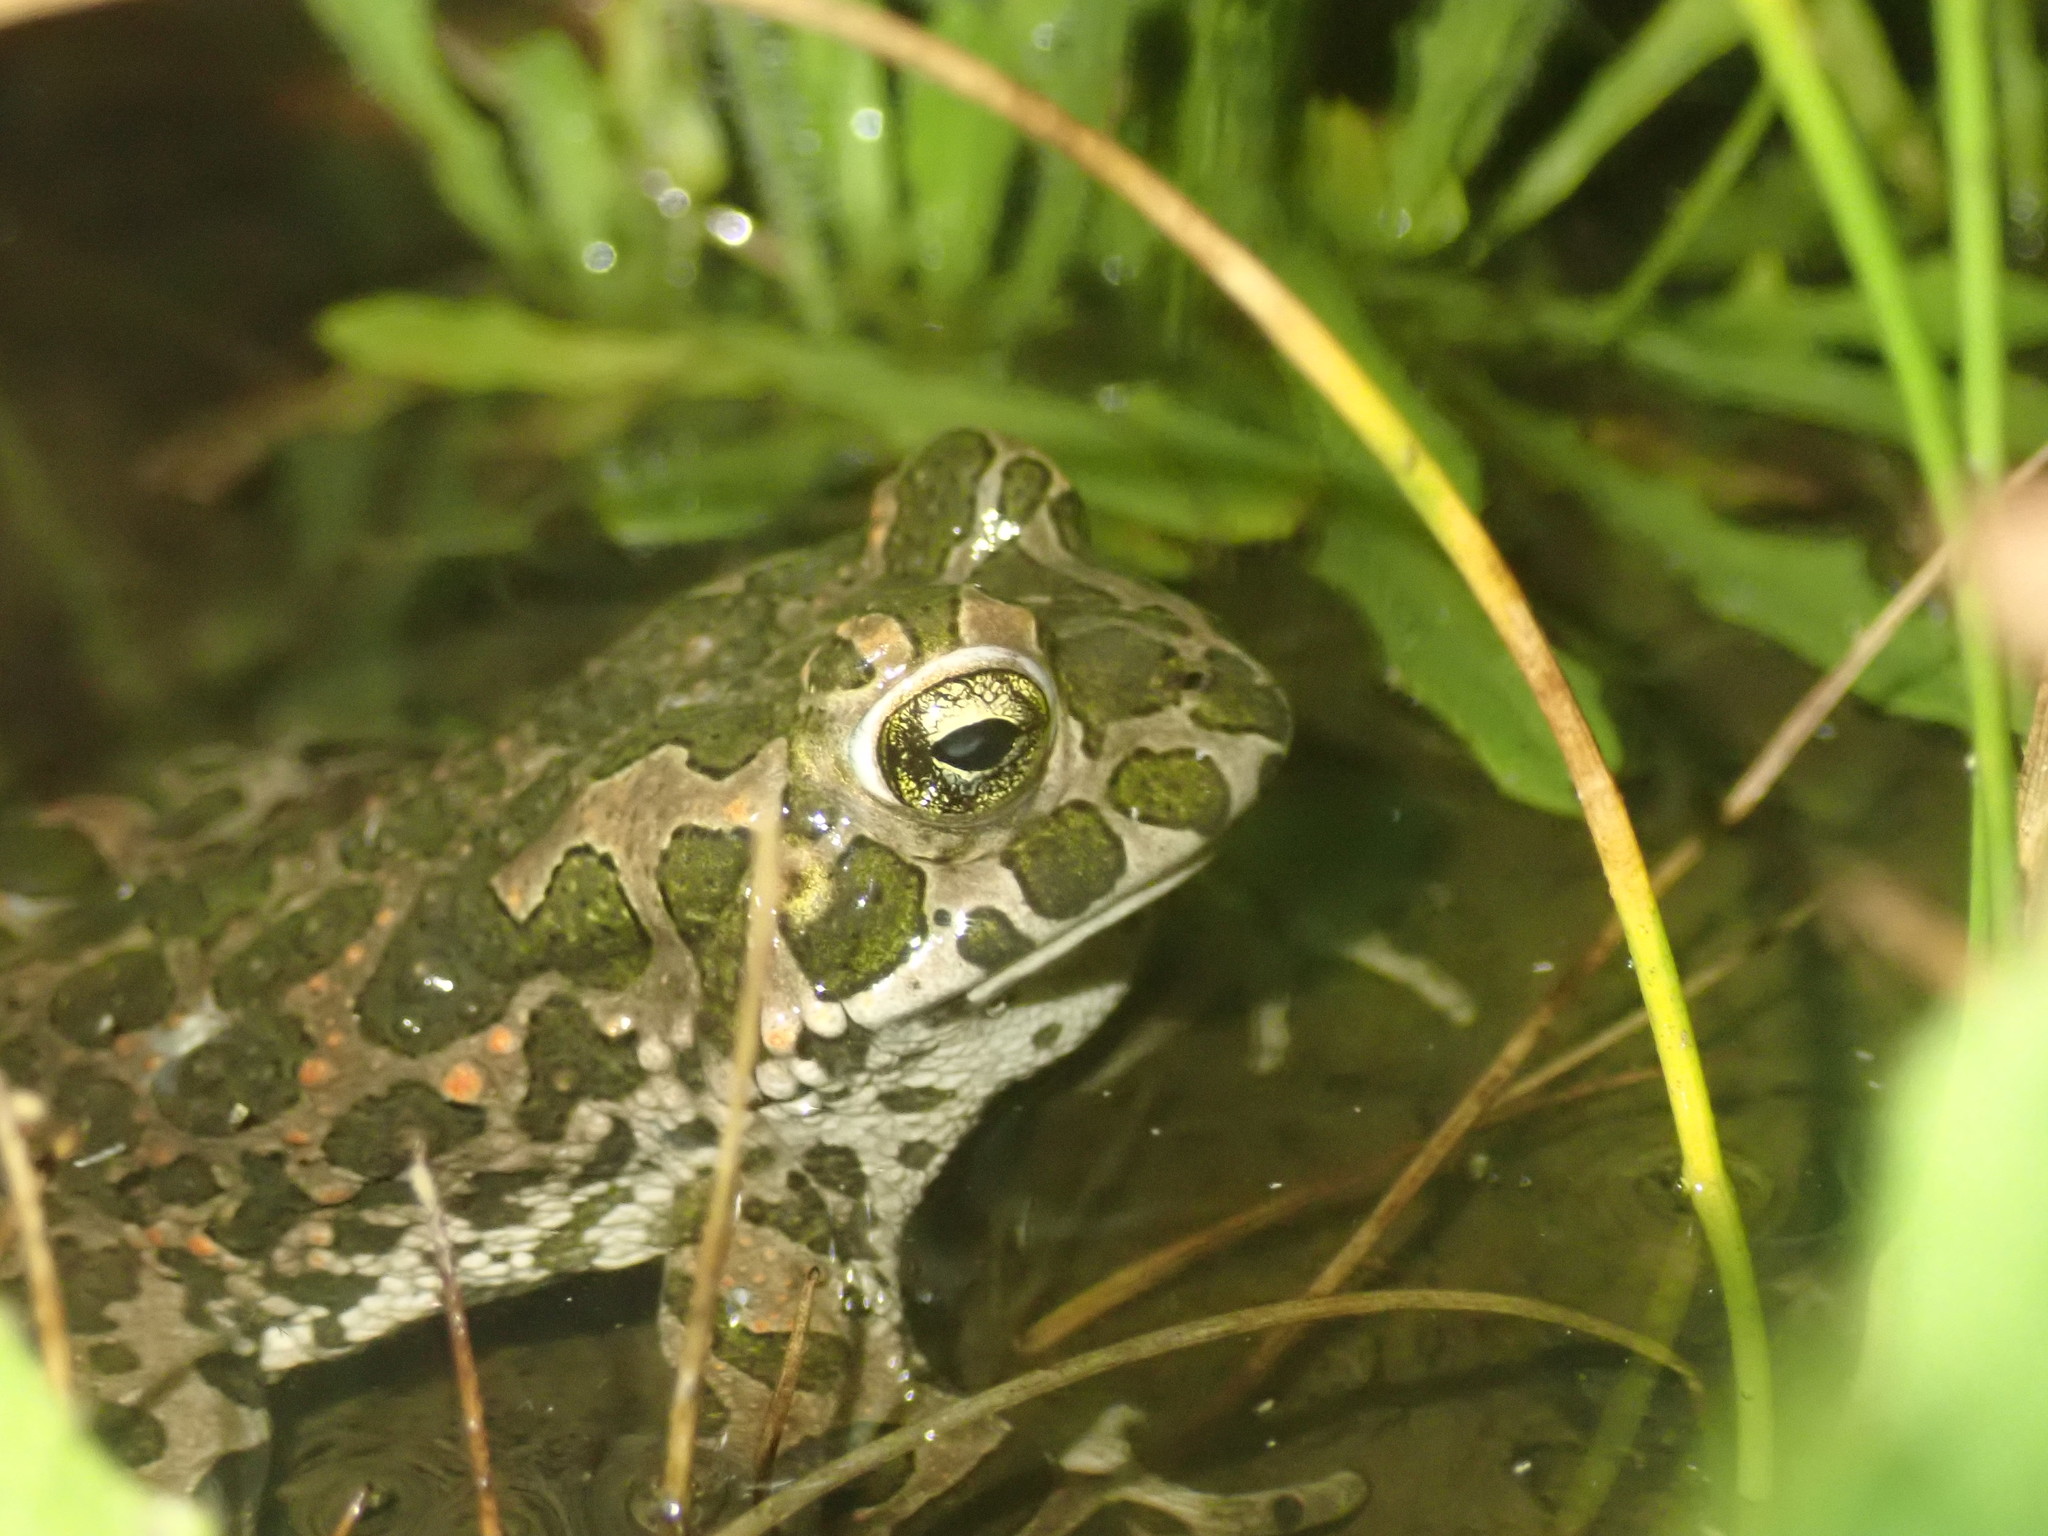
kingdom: Animalia
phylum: Chordata
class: Amphibia
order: Anura
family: Bufonidae
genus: Bufotes
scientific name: Bufotes viridis
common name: European green toad
